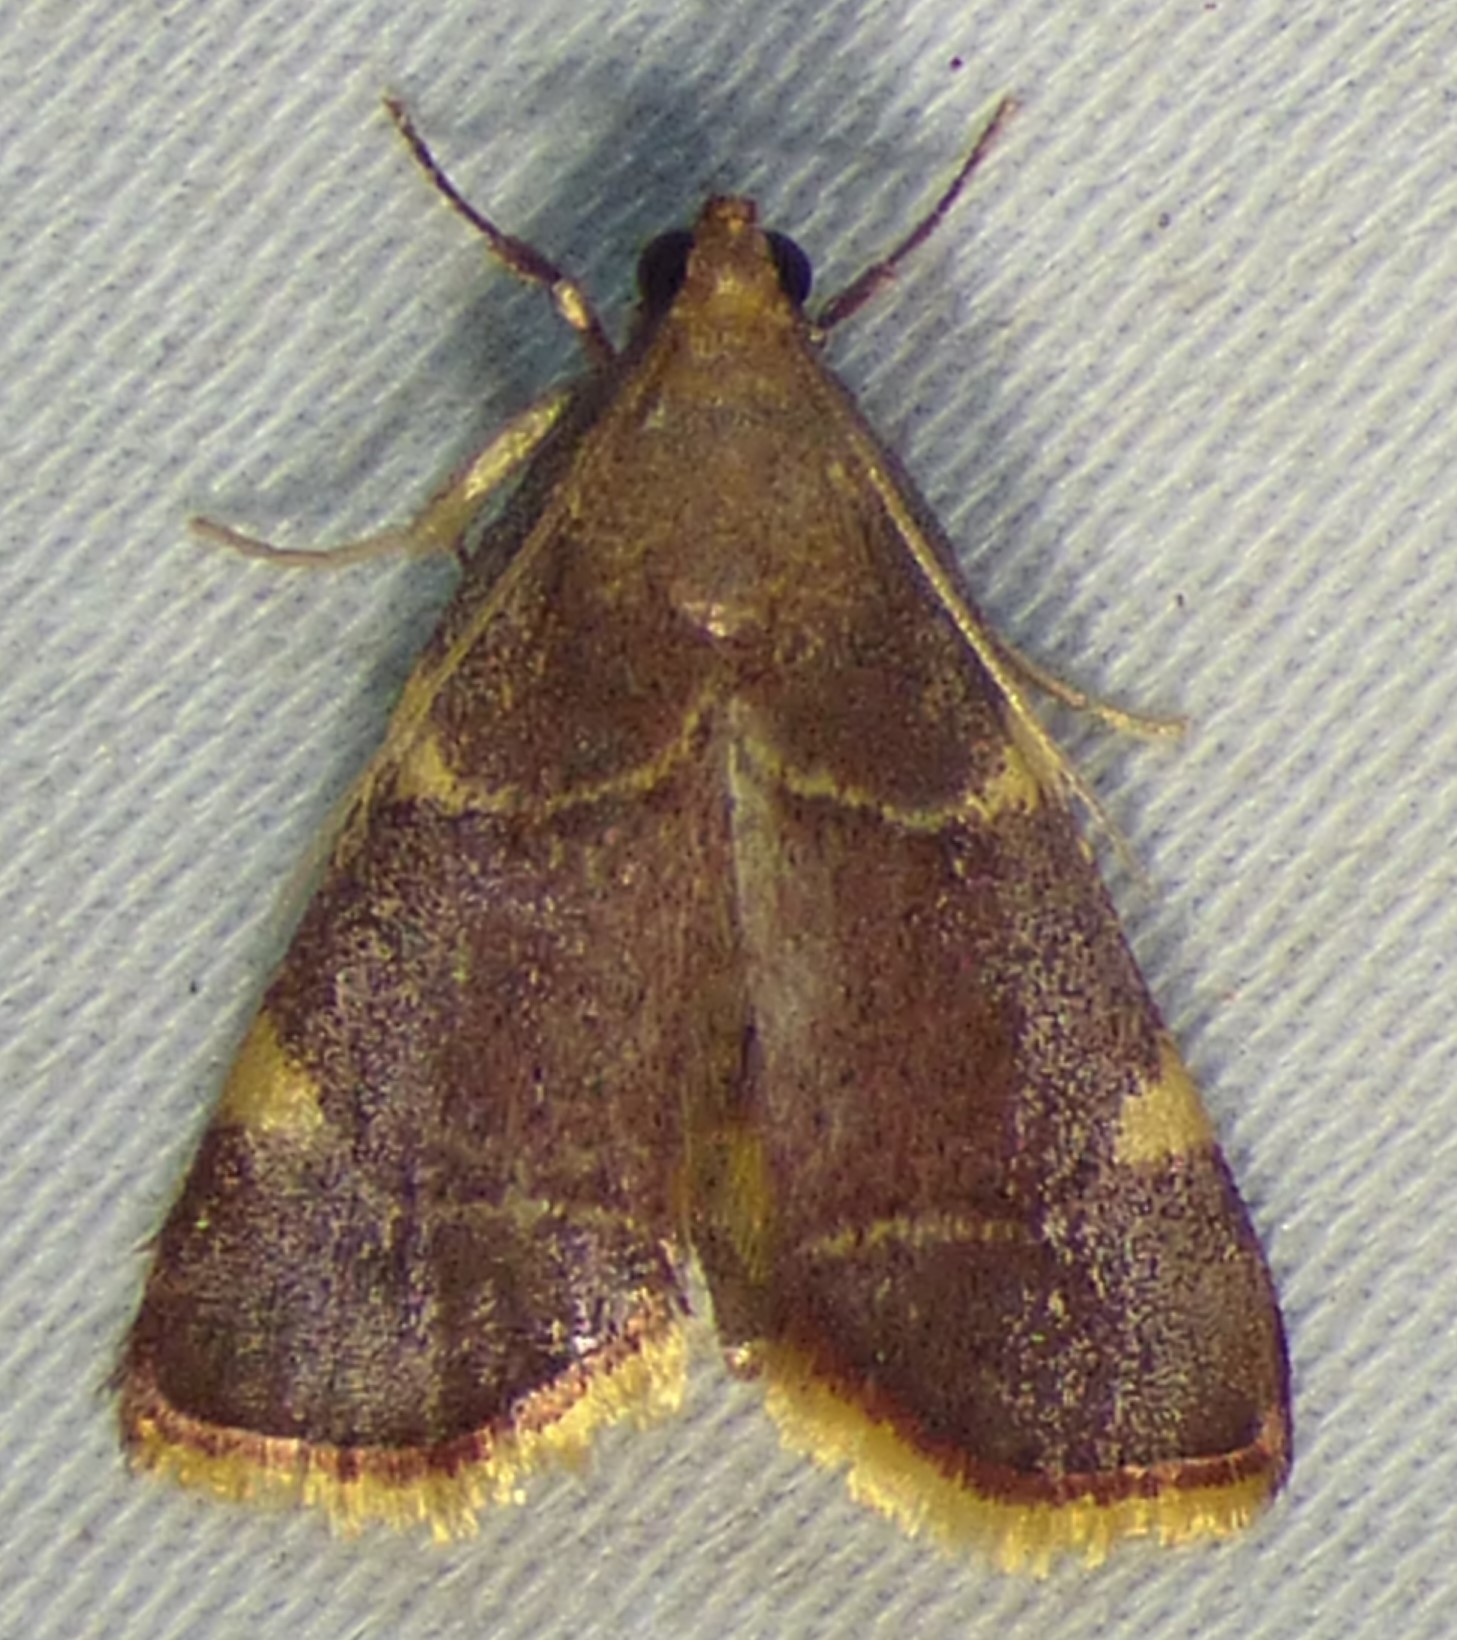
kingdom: Animalia
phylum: Arthropoda
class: Insecta
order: Lepidoptera
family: Pyralidae
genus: Hypsopygia
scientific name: Hypsopygia olinalis
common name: Yellow-fringed dolichomia moth
